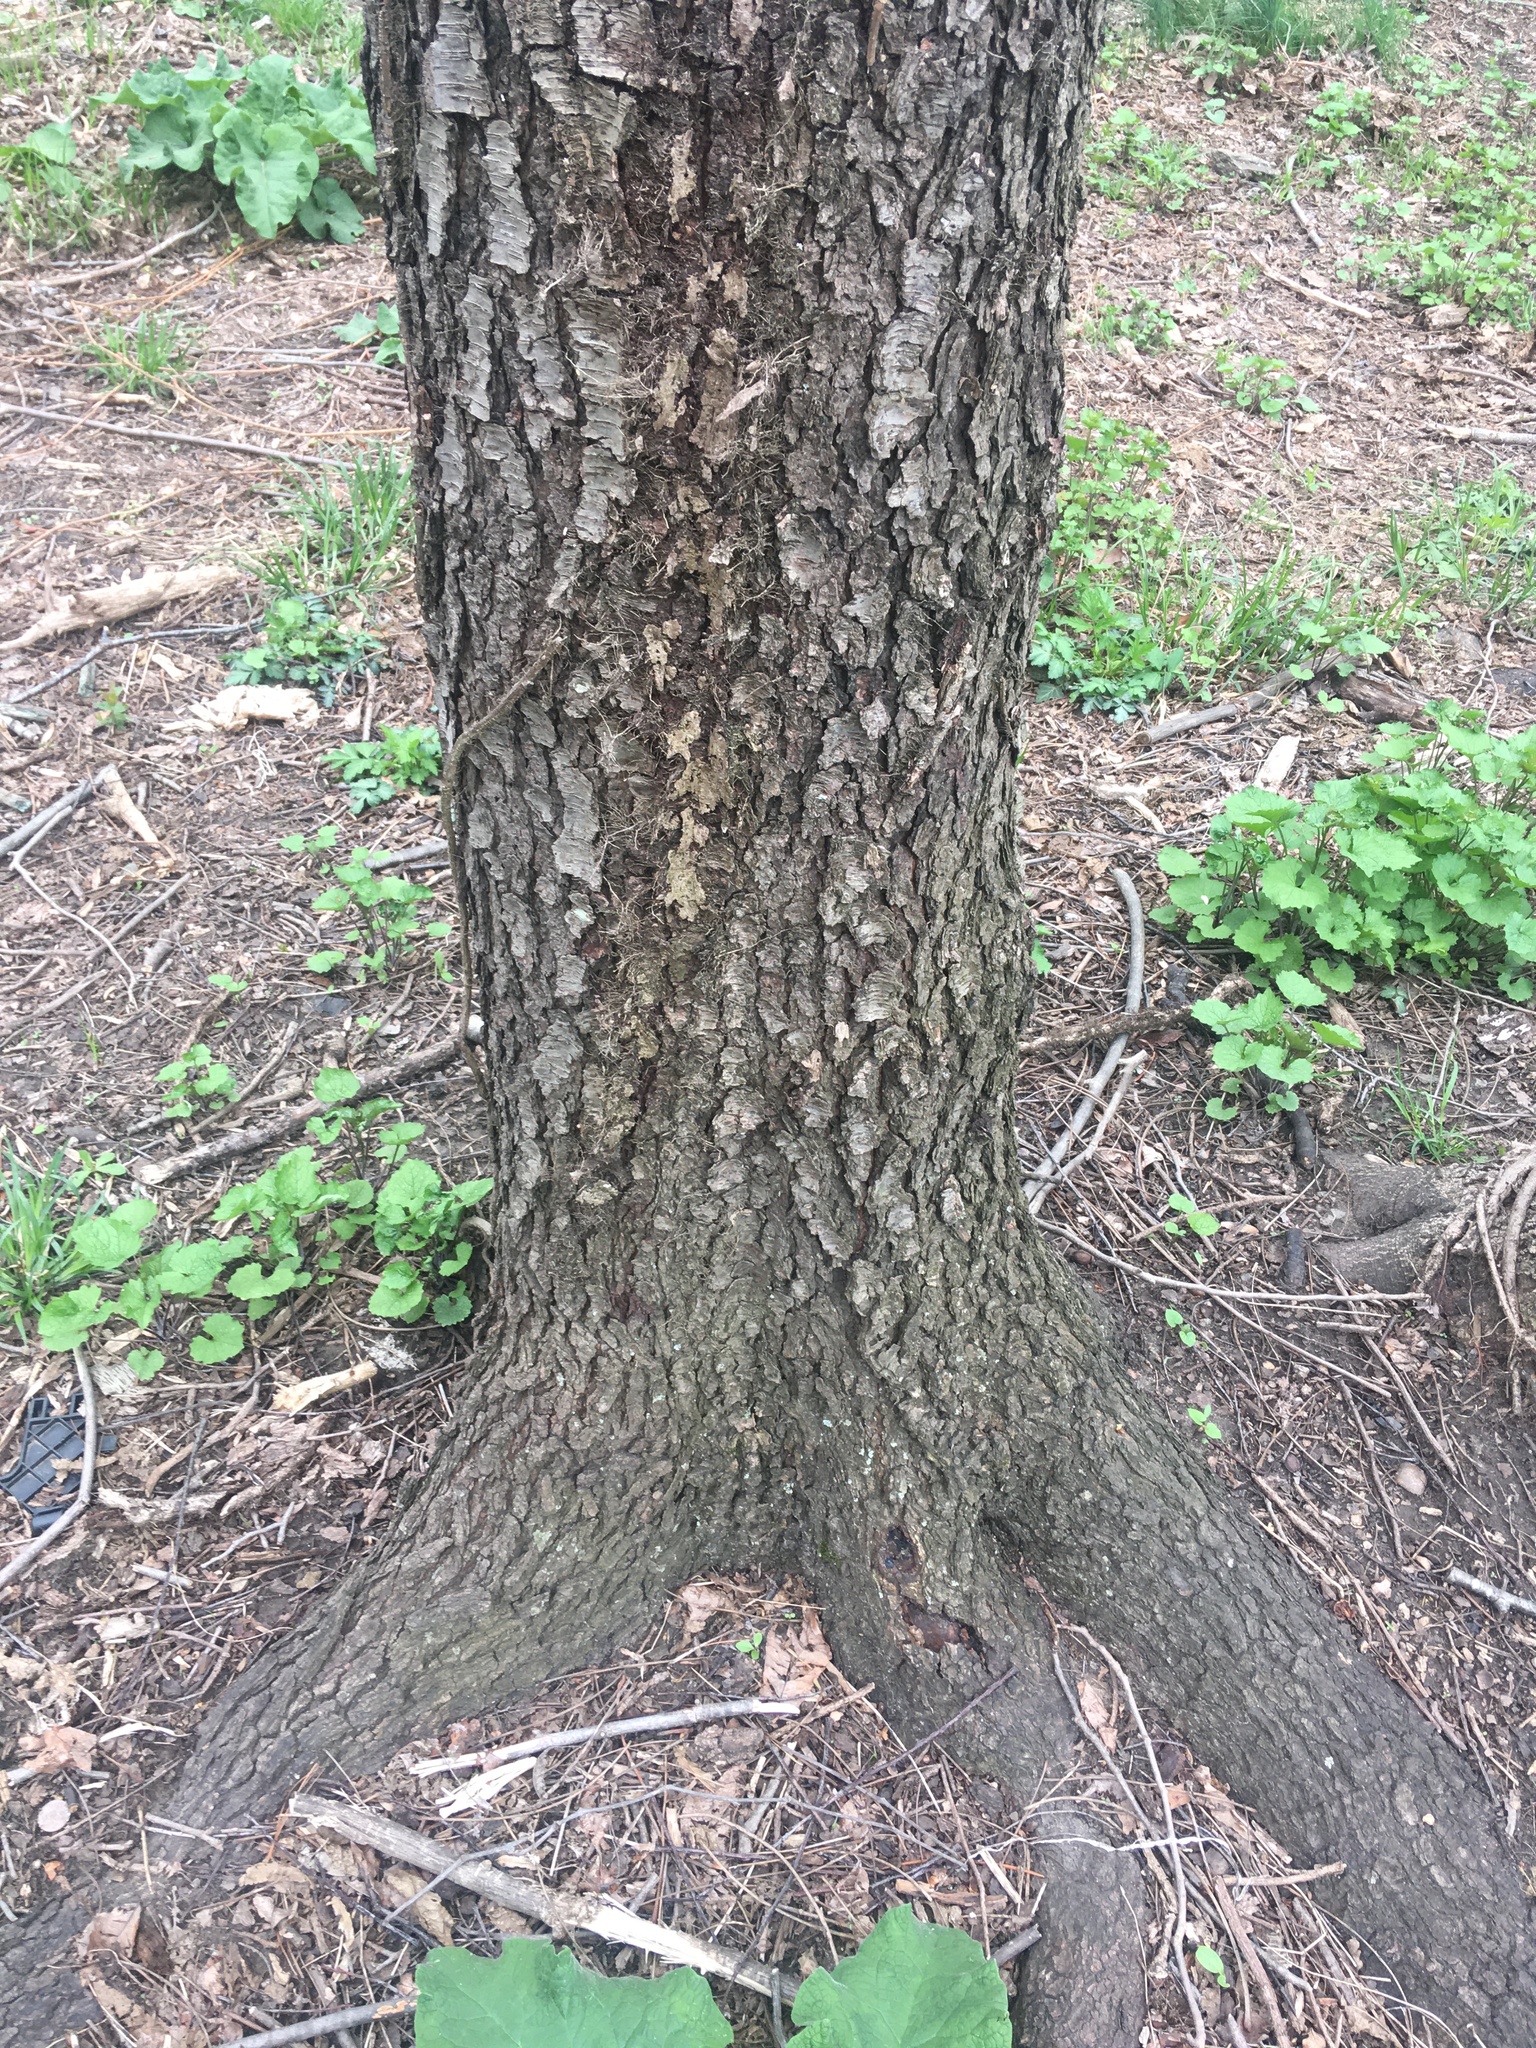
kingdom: Plantae
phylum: Tracheophyta
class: Magnoliopsida
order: Rosales
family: Rosaceae
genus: Prunus
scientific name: Prunus serotina
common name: Black cherry
